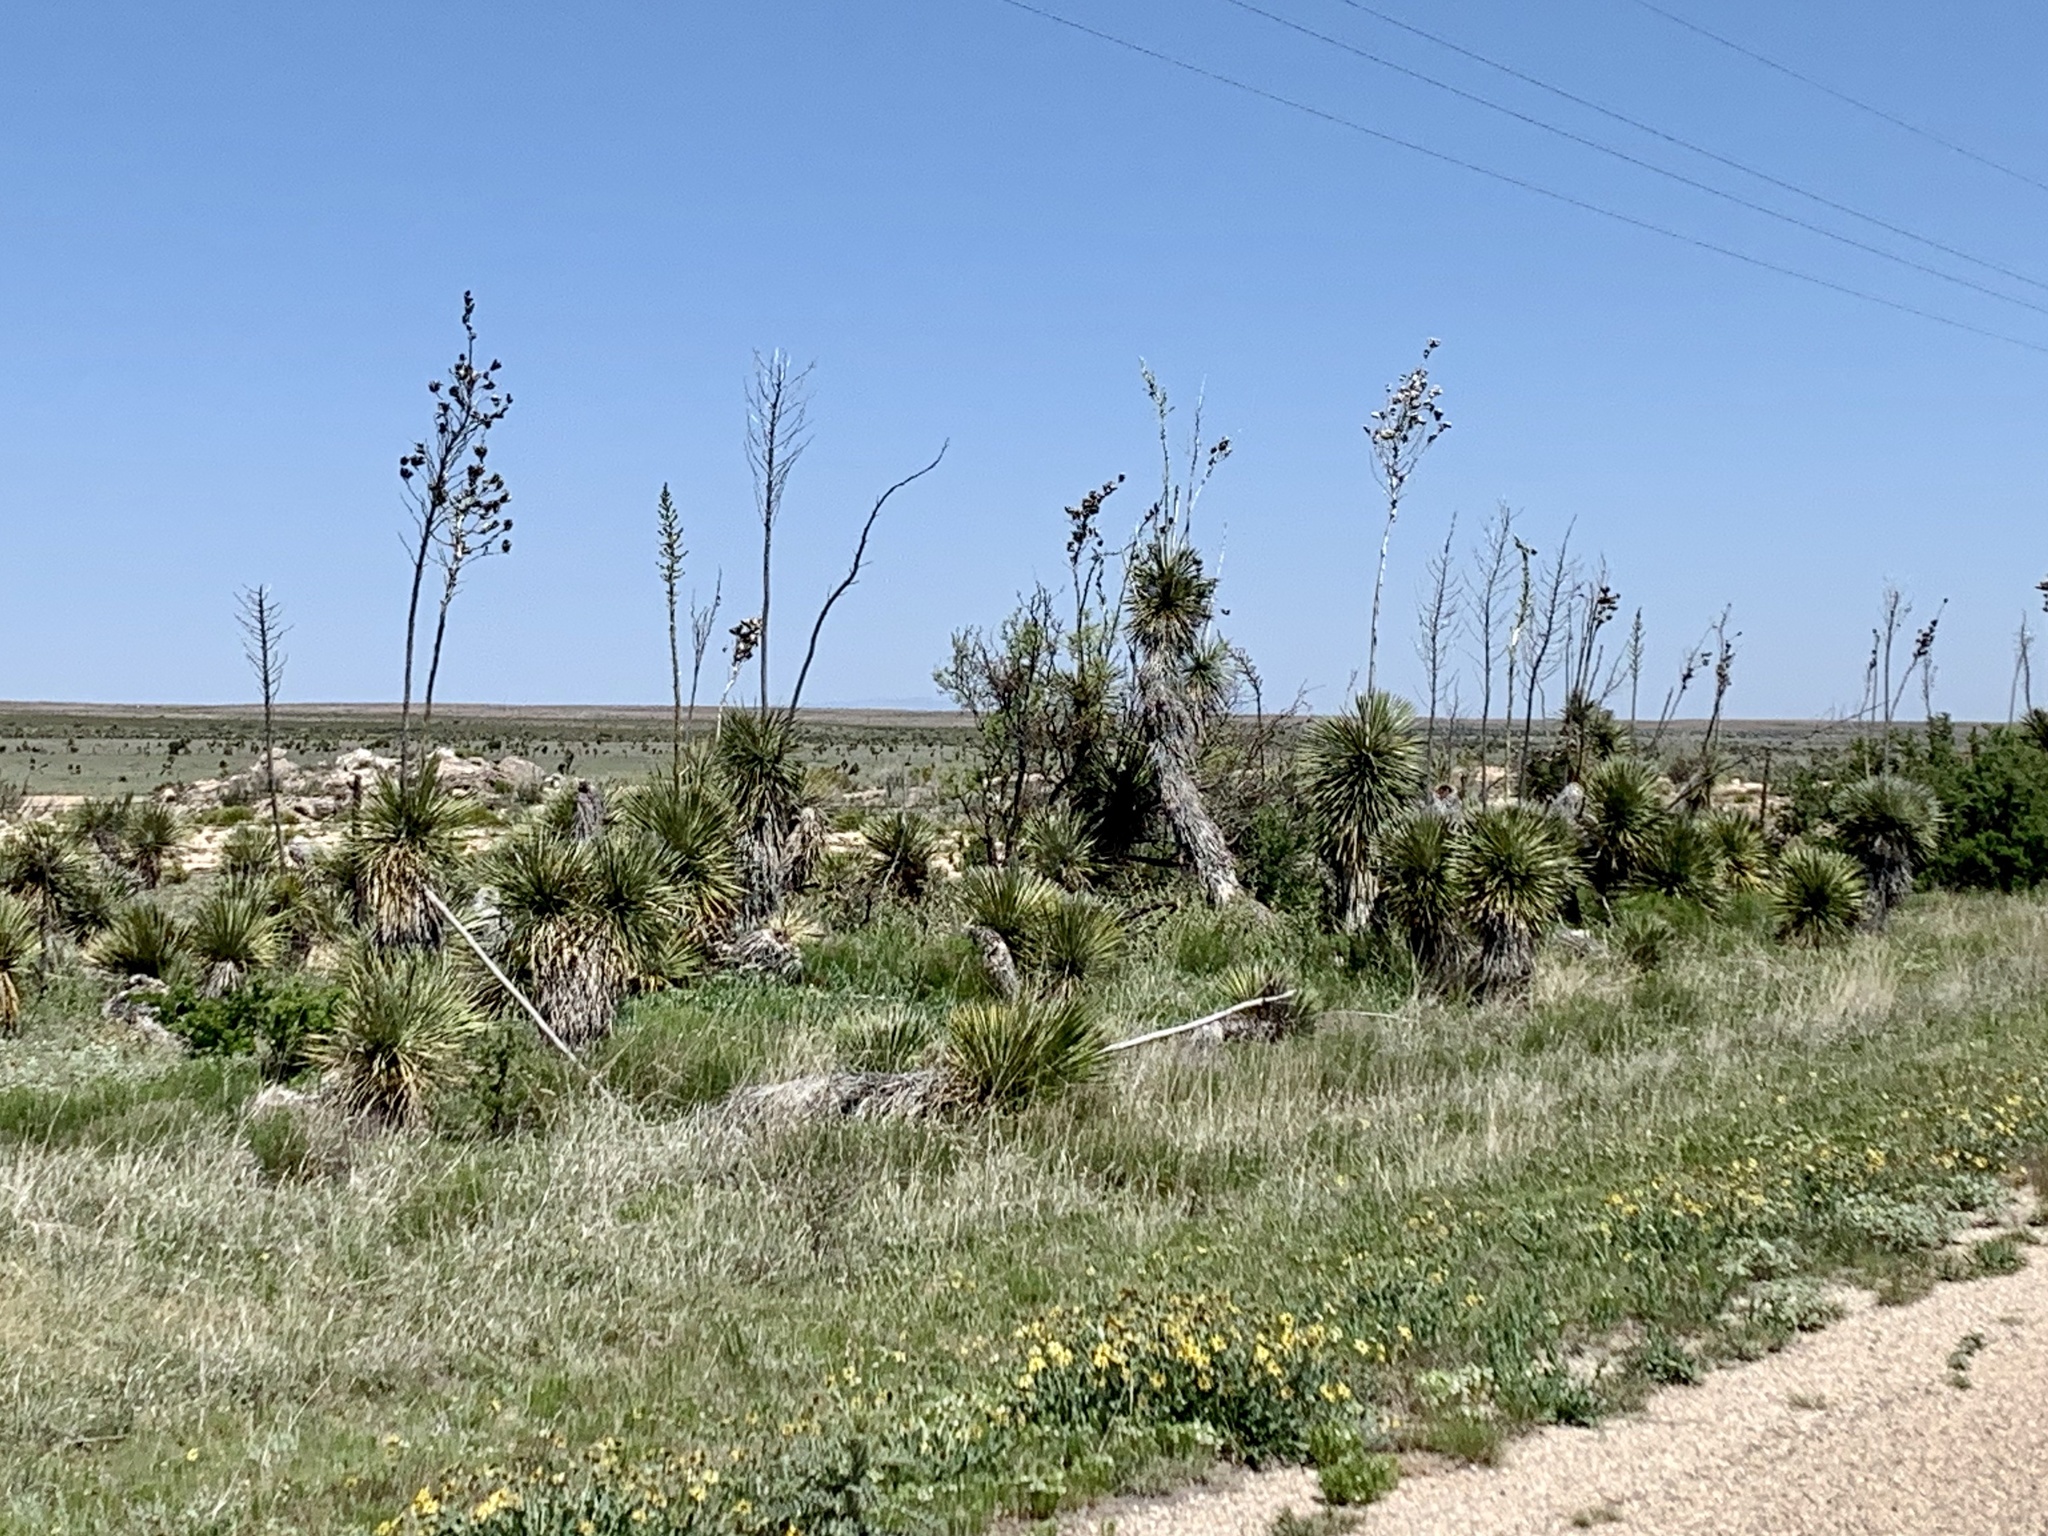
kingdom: Plantae
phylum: Tracheophyta
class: Liliopsida
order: Asparagales
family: Asparagaceae
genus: Yucca
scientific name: Yucca elata
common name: Palmella
